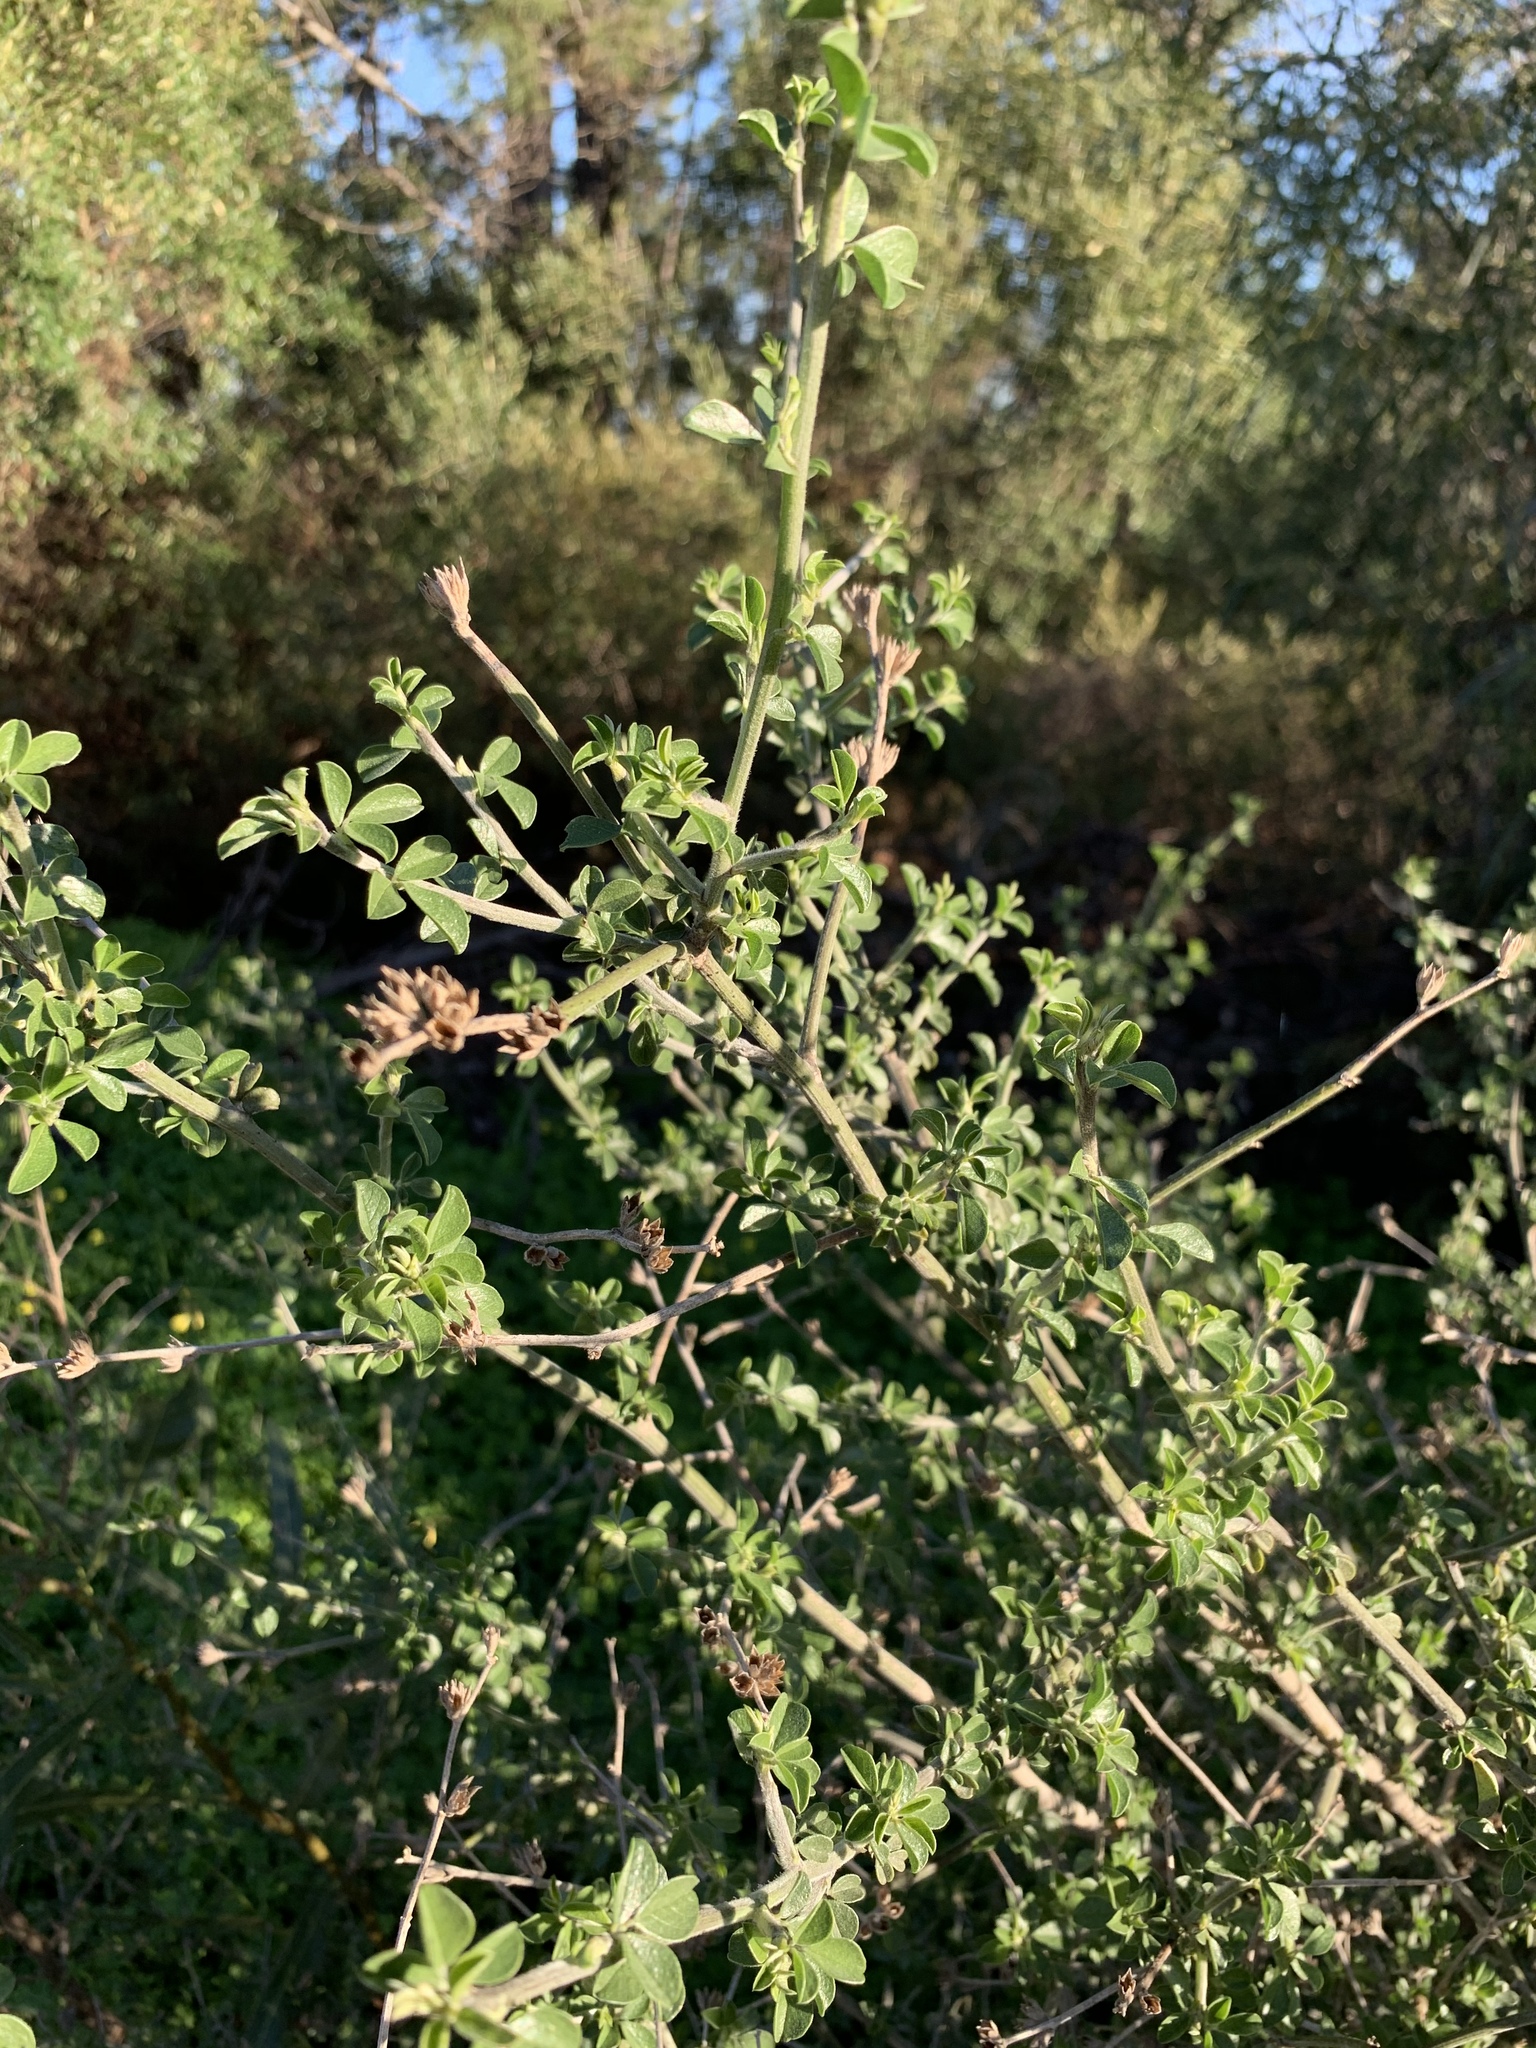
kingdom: Plantae
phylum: Tracheophyta
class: Magnoliopsida
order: Fabales
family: Fabaceae
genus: Psoralea
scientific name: Psoralea hirta
